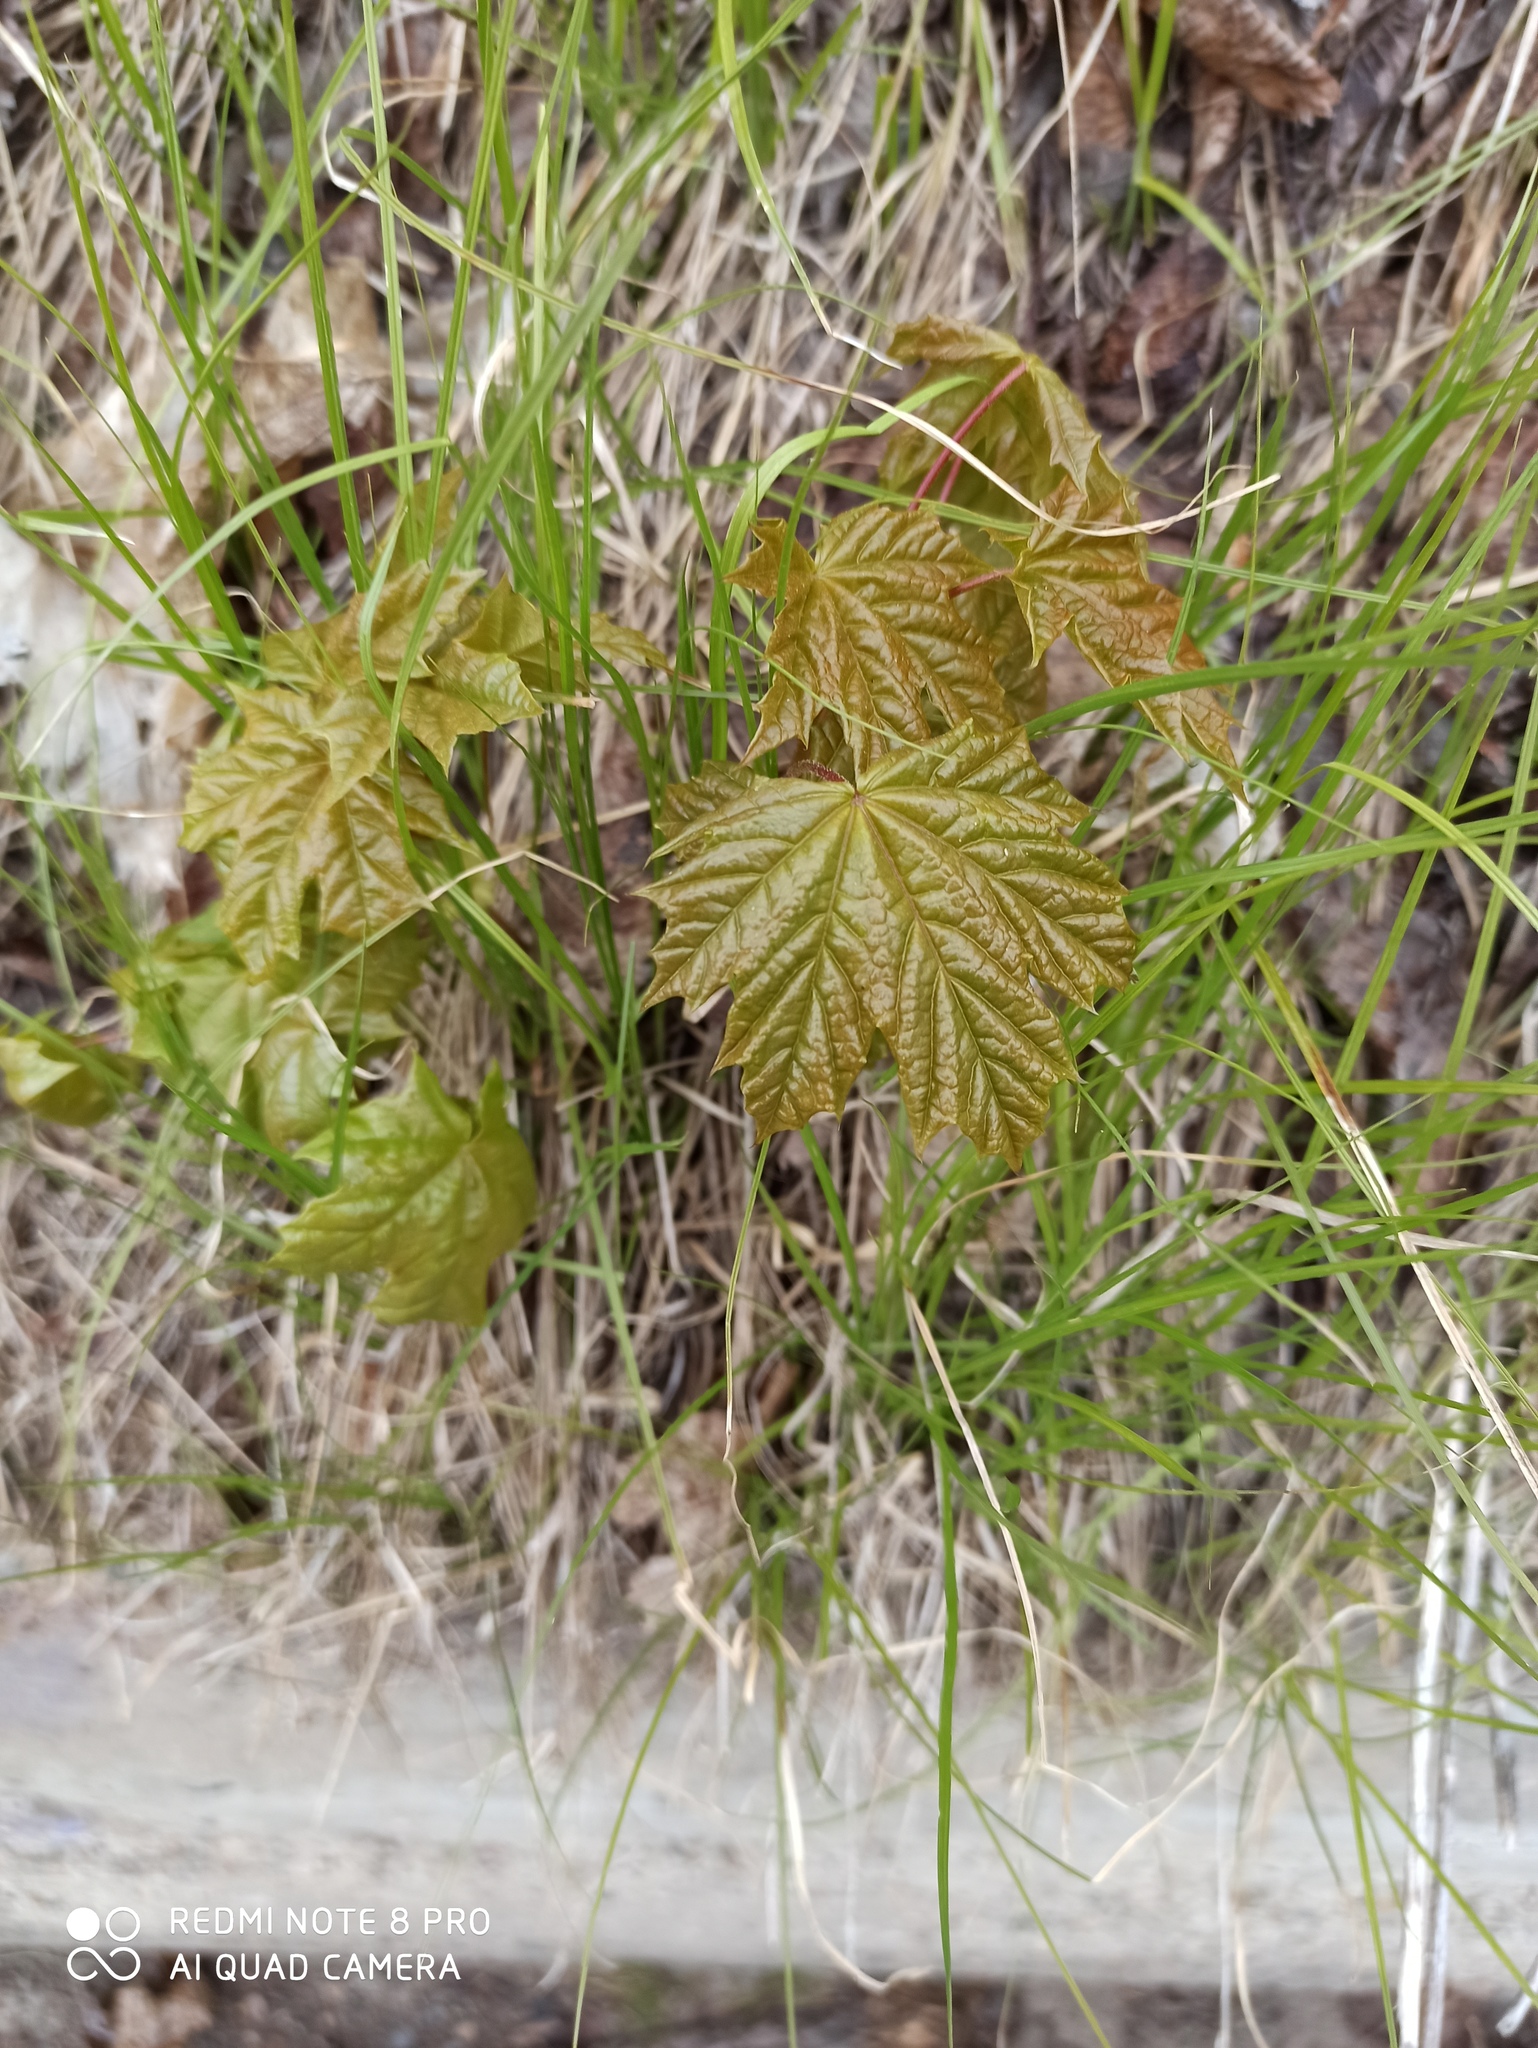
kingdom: Plantae
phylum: Tracheophyta
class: Magnoliopsida
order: Sapindales
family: Sapindaceae
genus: Acer
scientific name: Acer platanoides
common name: Norway maple
